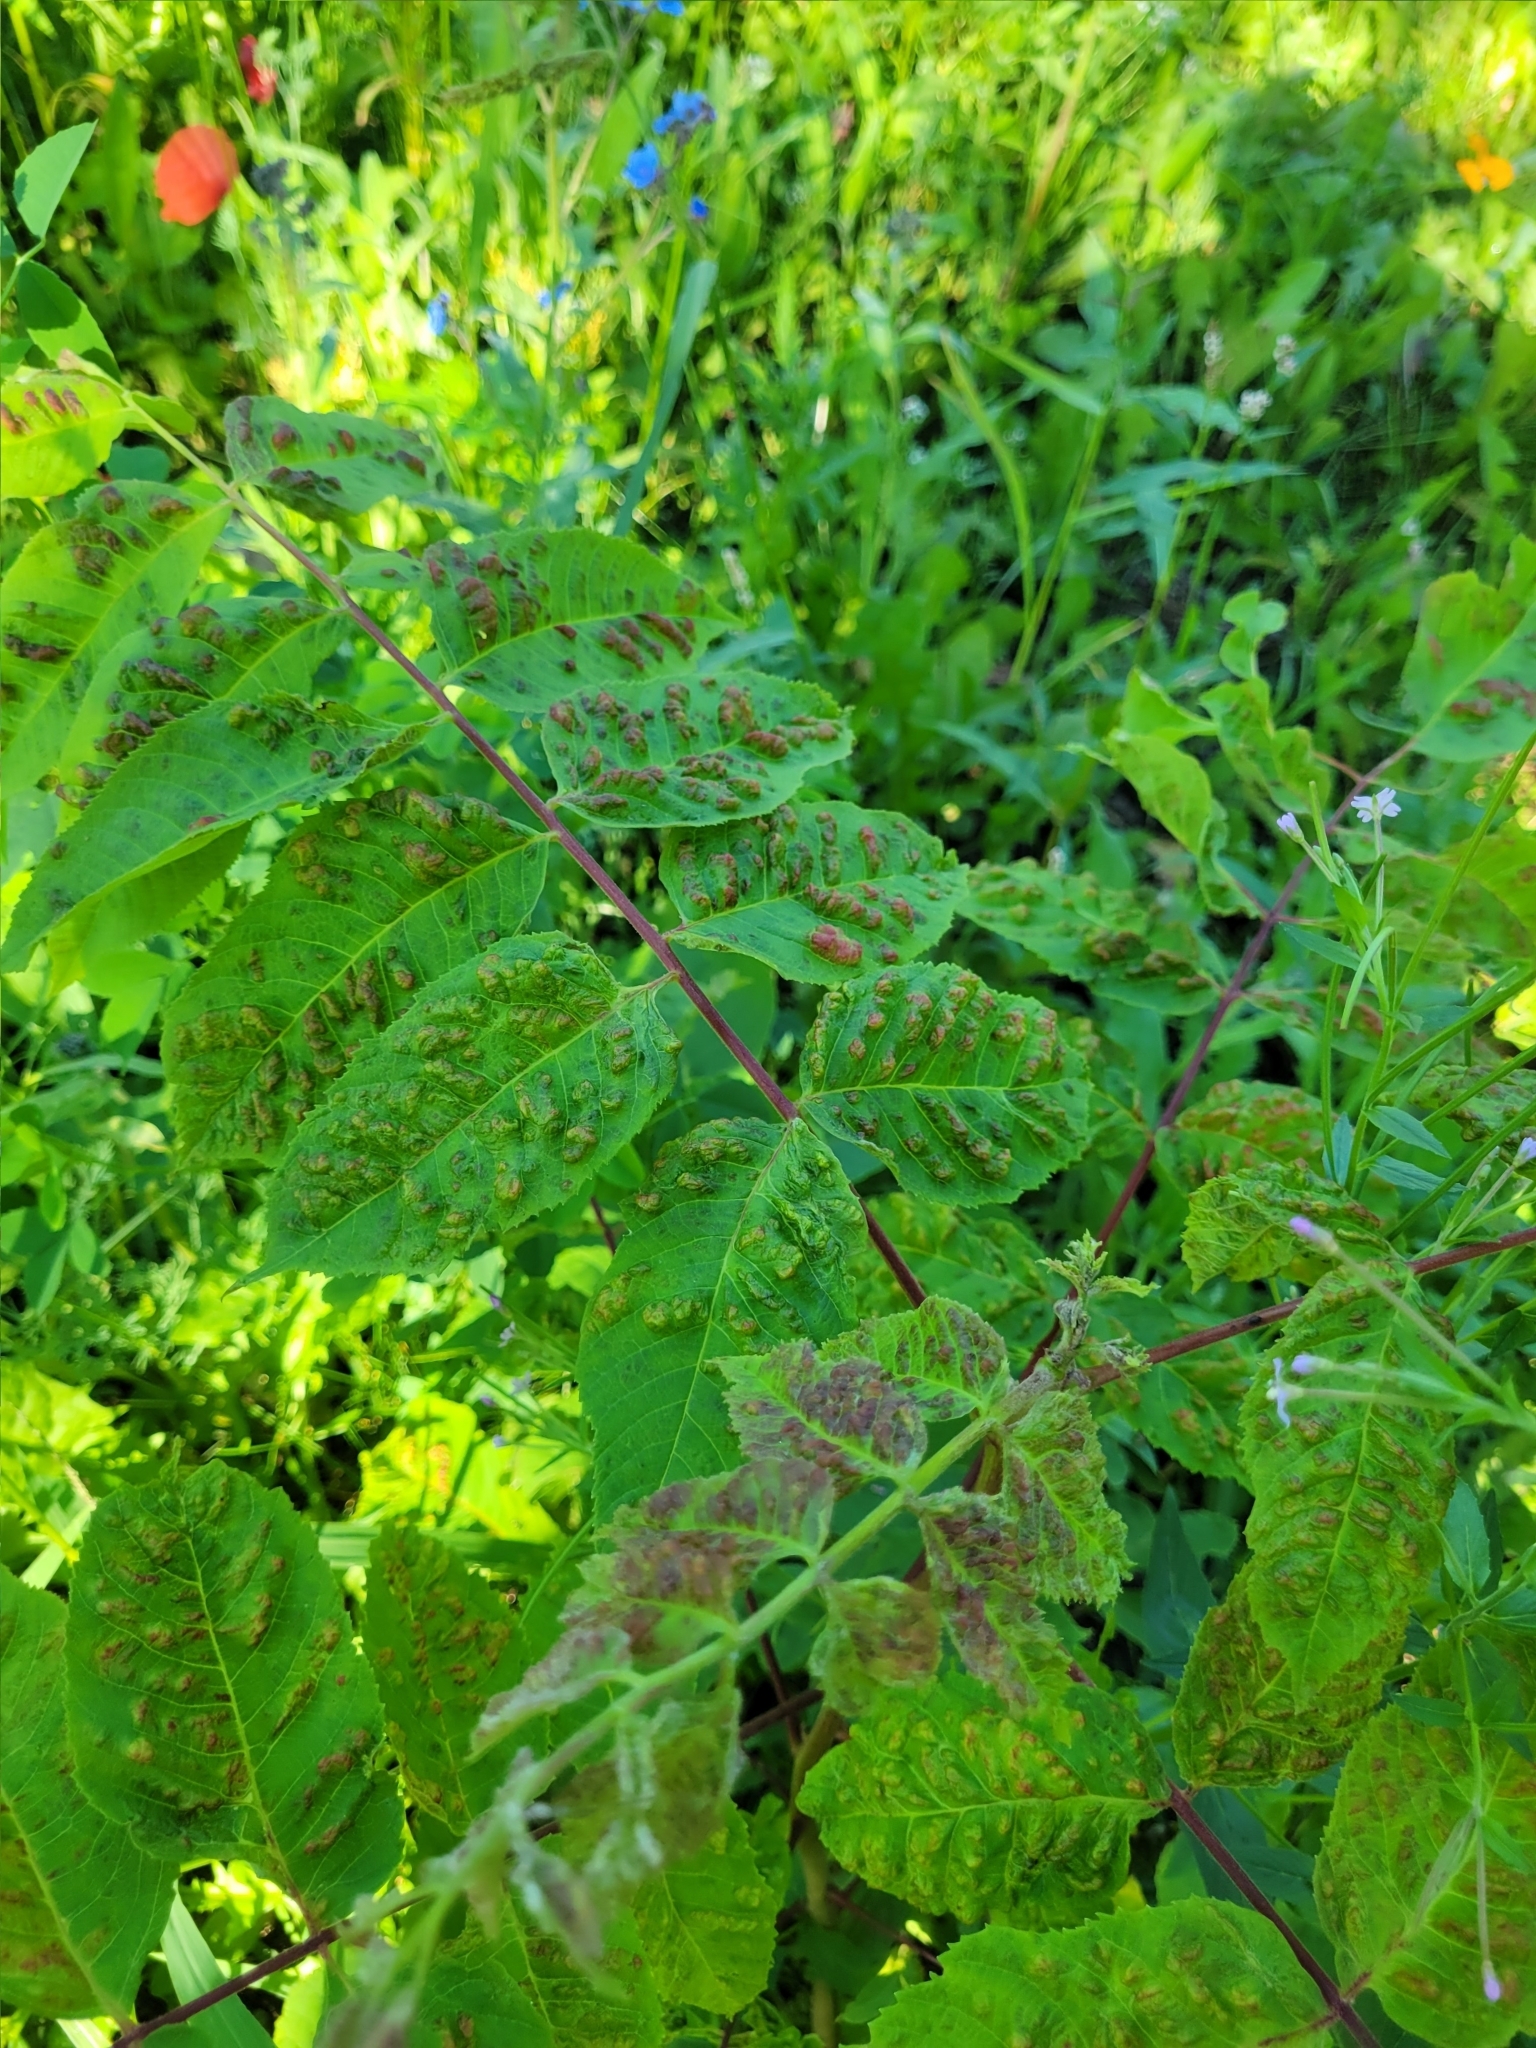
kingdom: Animalia
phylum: Arthropoda
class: Arachnida
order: Trombidiformes
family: Eriophyidae
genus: Aceria
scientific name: Aceria
